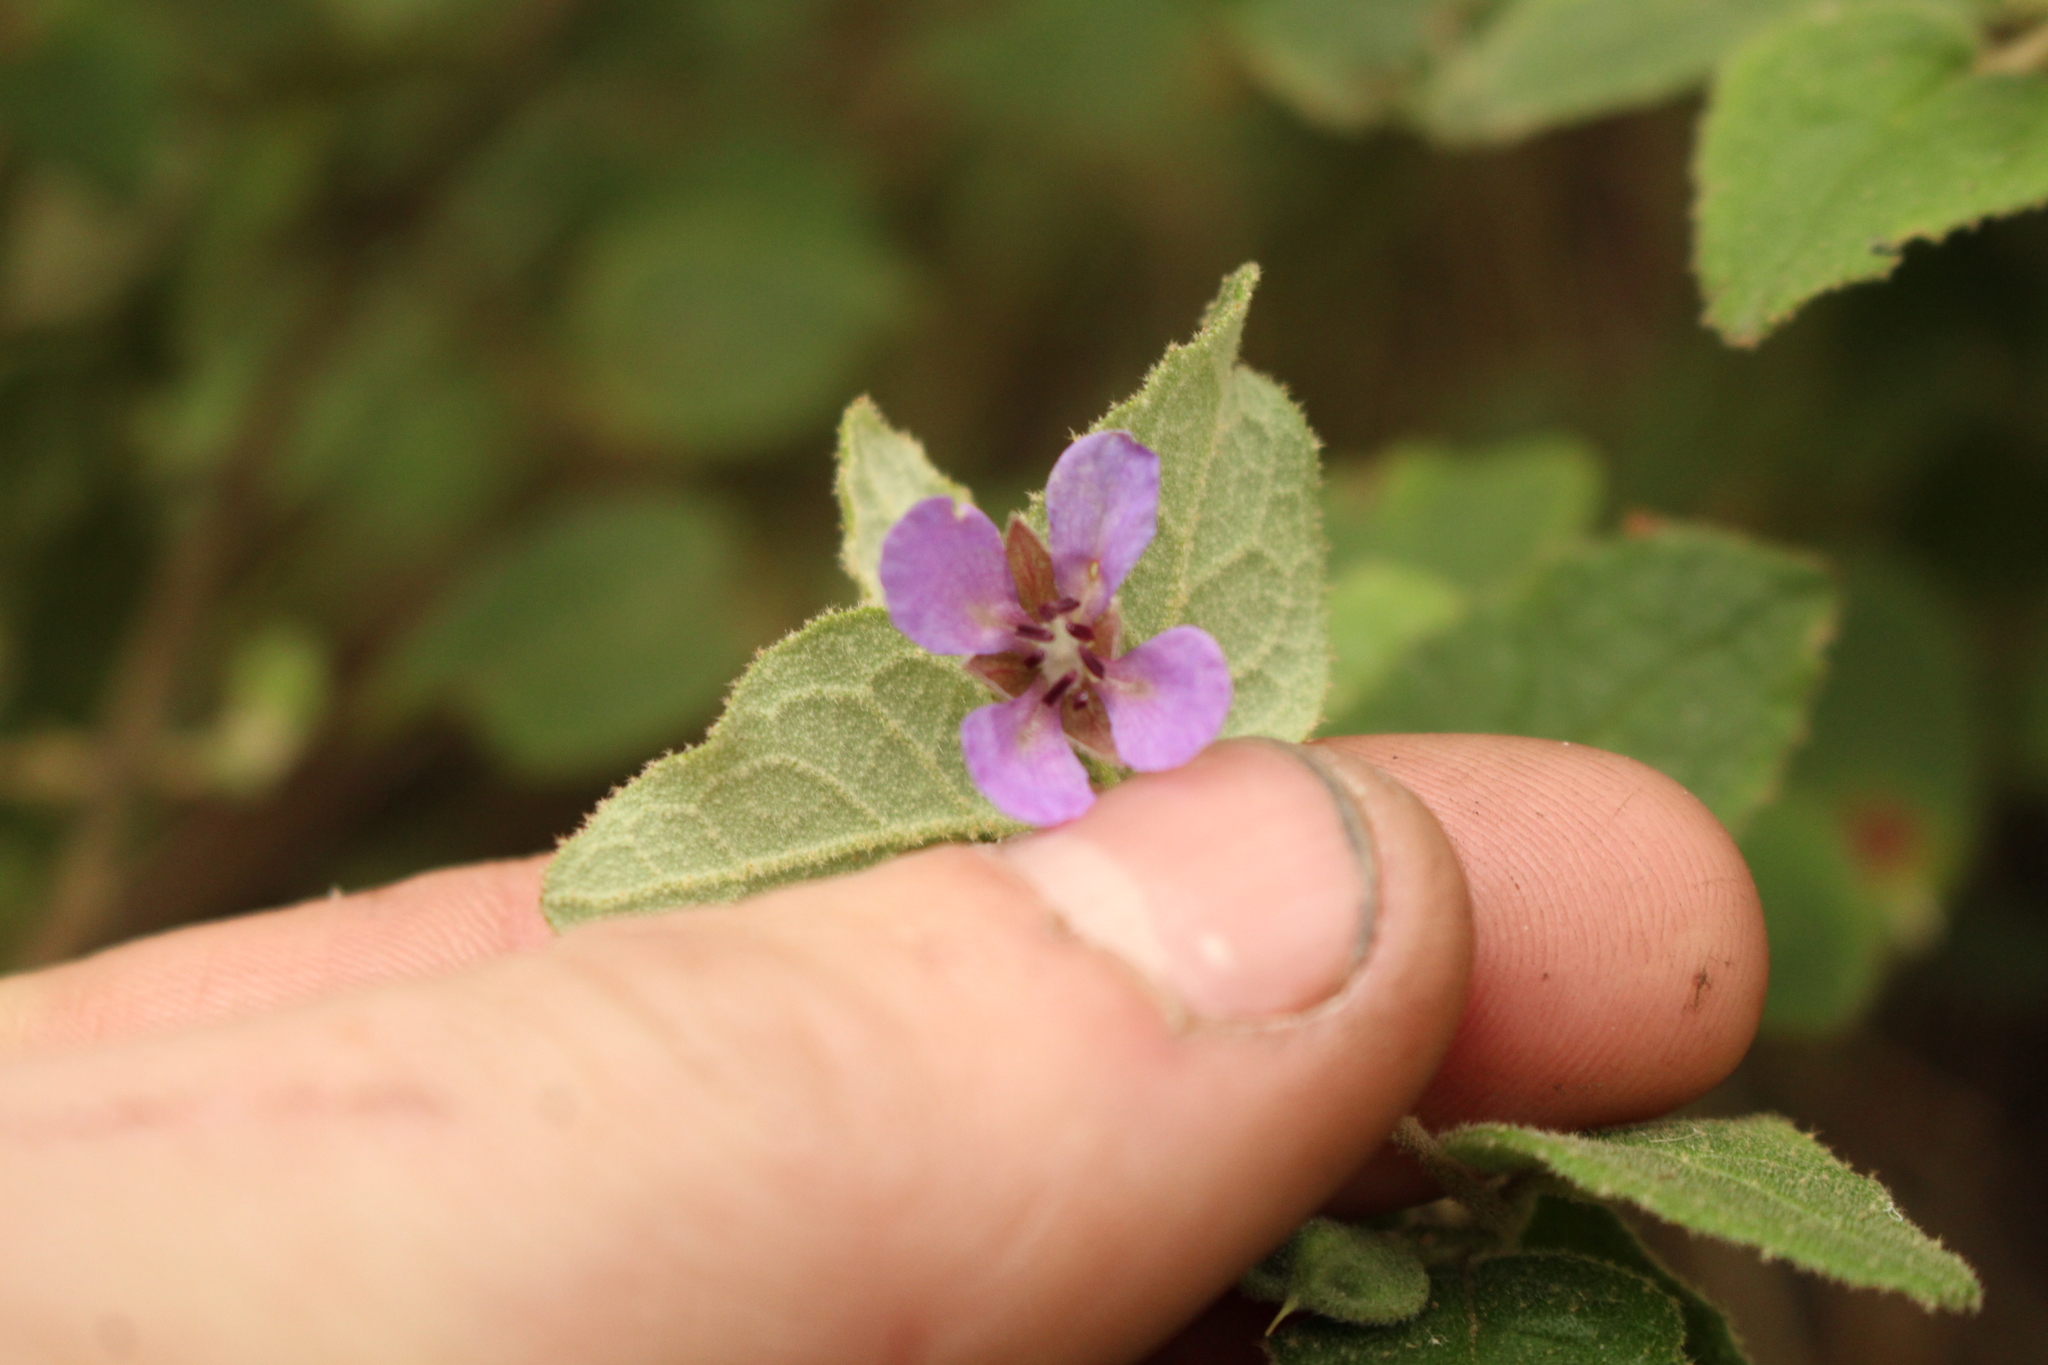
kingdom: Plantae
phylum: Tracheophyta
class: Magnoliopsida
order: Oxalidales
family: Elaeocarpaceae
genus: Tremandra
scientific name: Tremandra stelligera
